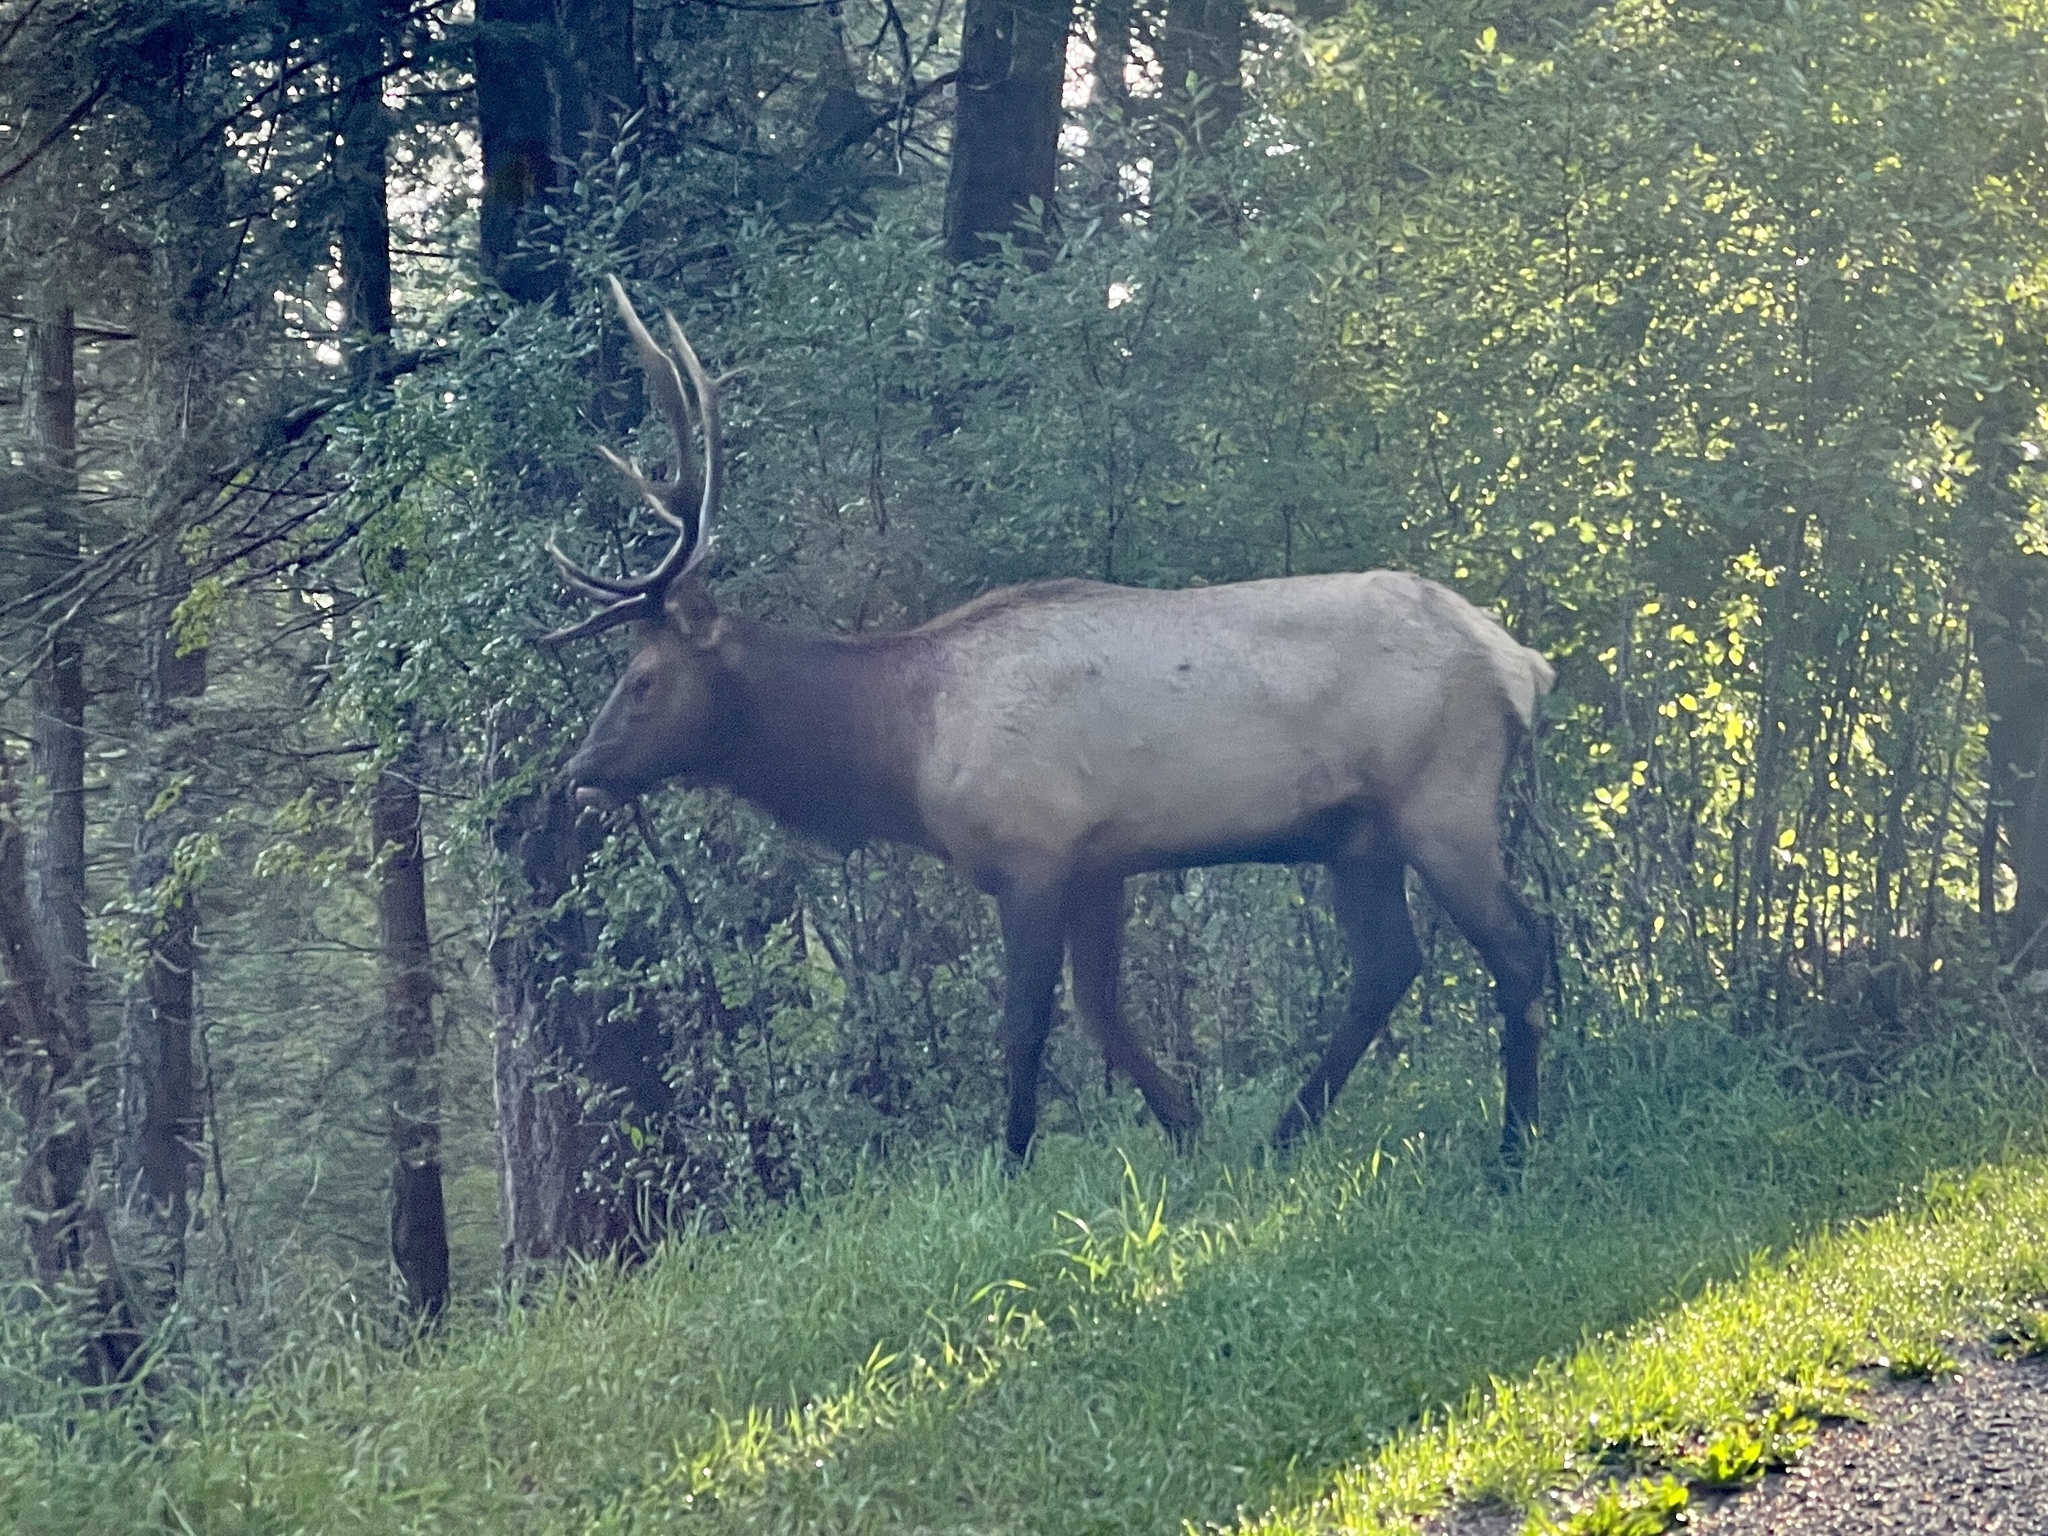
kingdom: Animalia
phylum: Chordata
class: Mammalia
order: Artiodactyla
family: Cervidae
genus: Cervus
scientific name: Cervus elaphus
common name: Red deer
